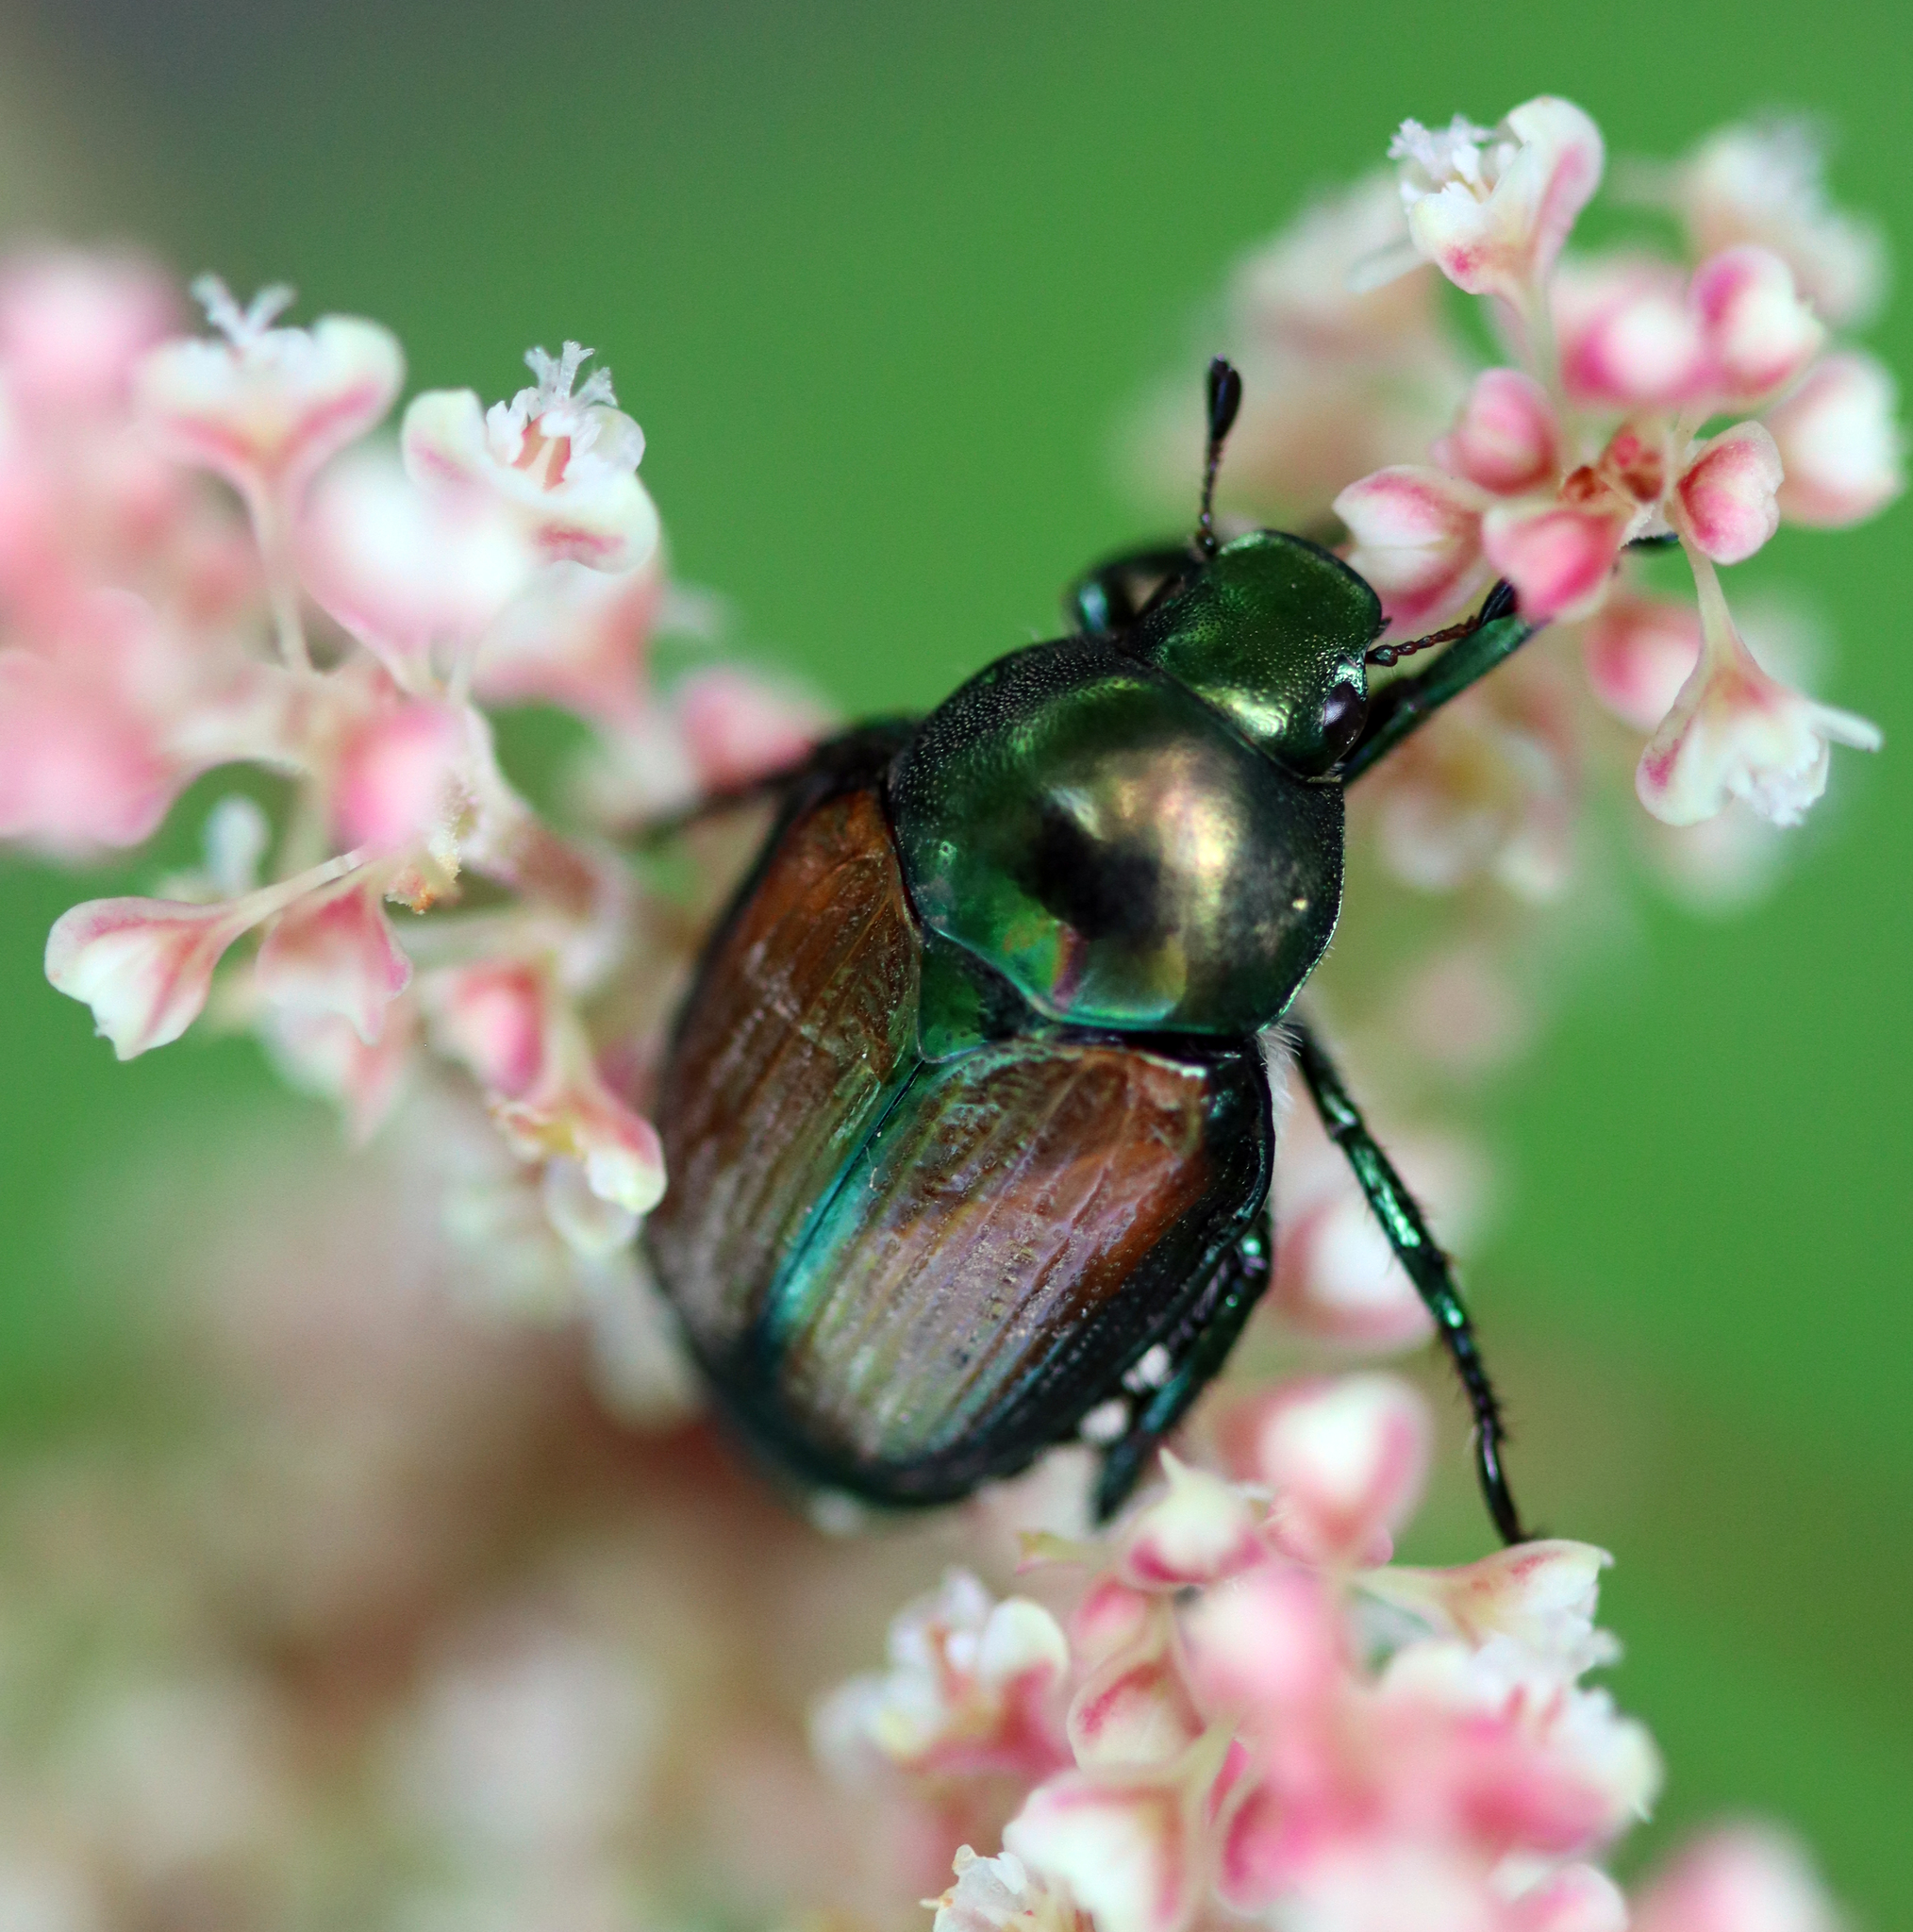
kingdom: Animalia
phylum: Arthropoda
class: Insecta
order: Coleoptera
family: Scarabaeidae
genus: Popillia
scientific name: Popillia japonica
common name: Japanese beetle
